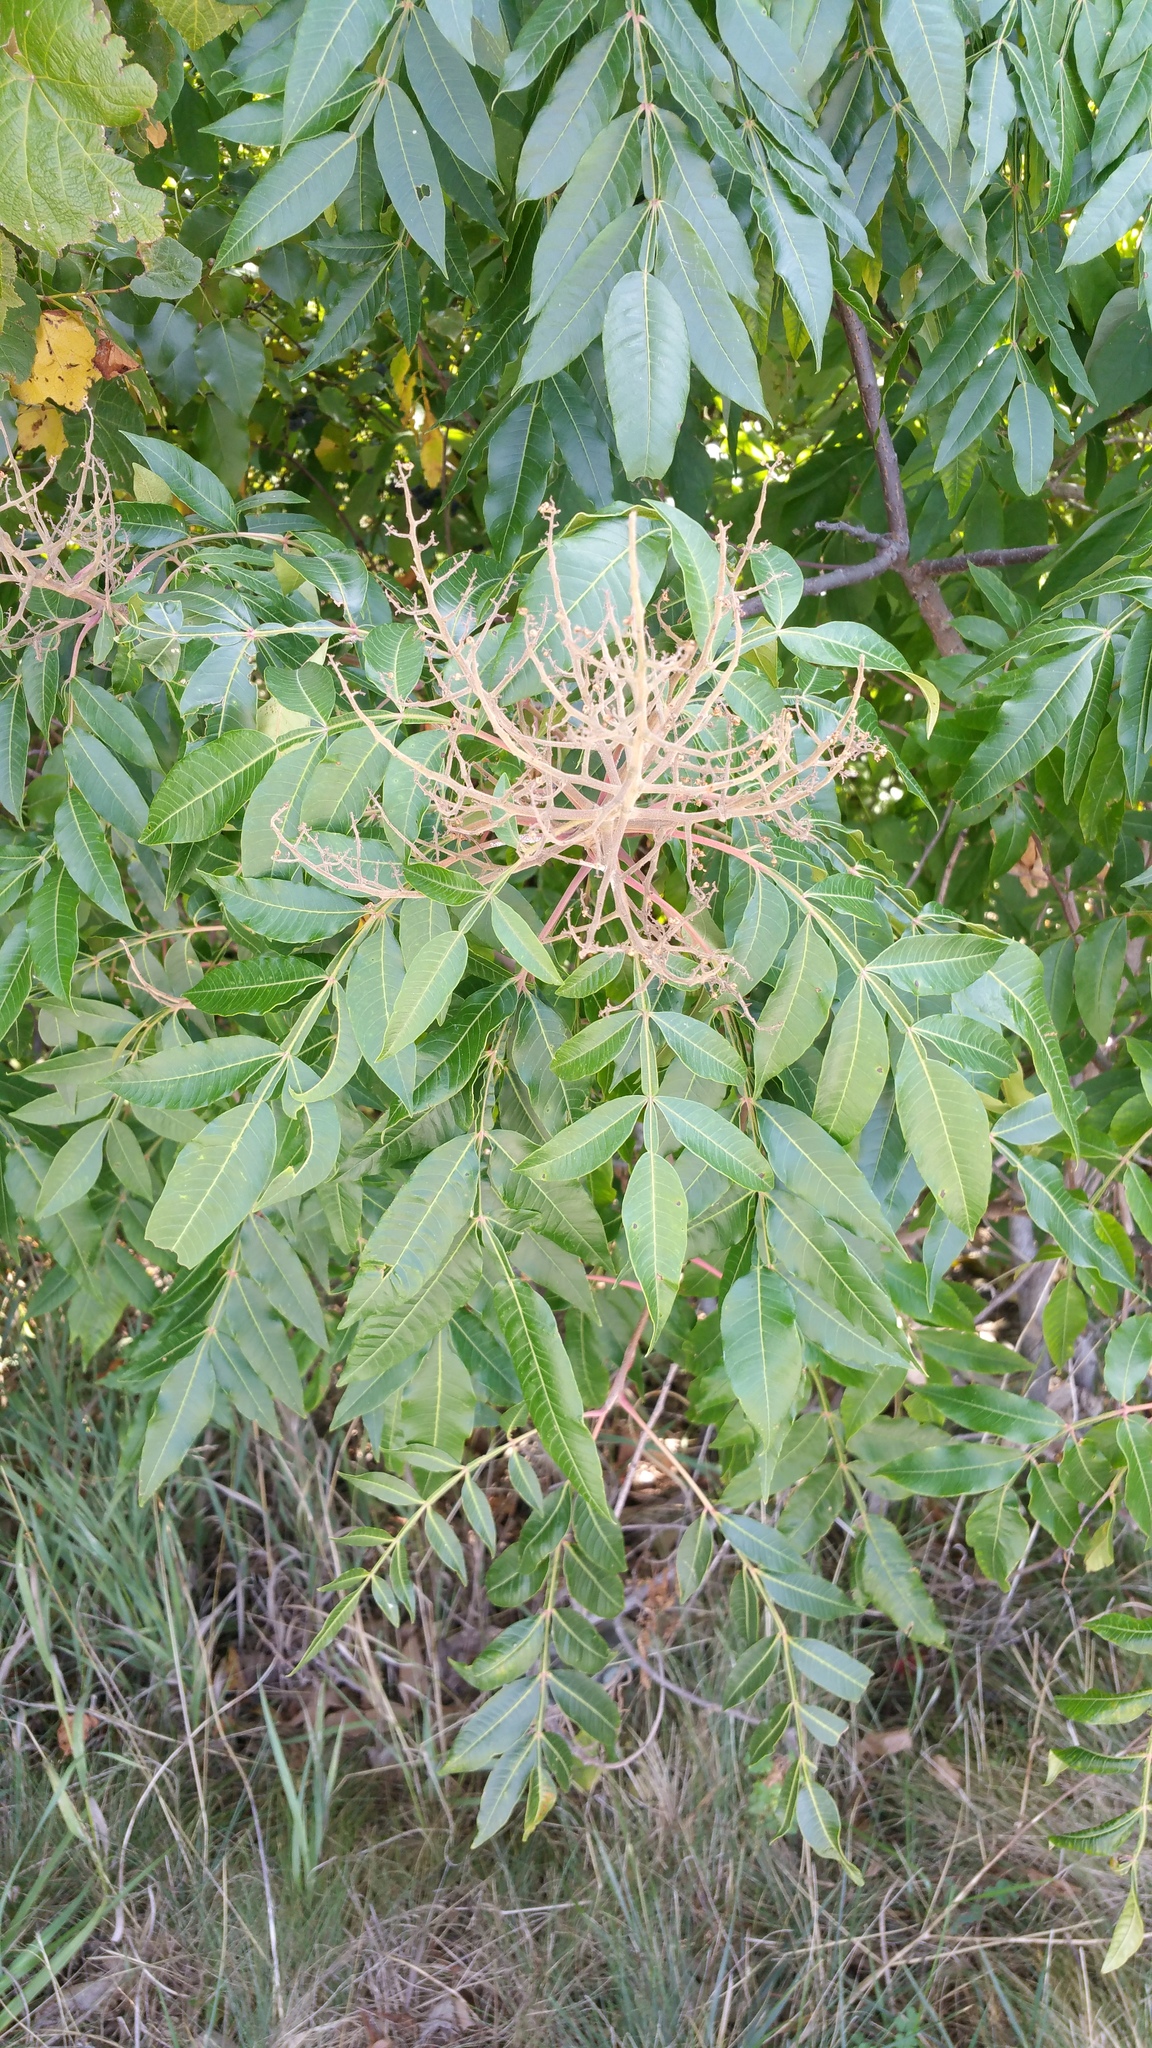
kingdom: Plantae
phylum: Tracheophyta
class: Magnoliopsida
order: Sapindales
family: Anacardiaceae
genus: Rhus
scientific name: Rhus copallina
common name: Shining sumac
